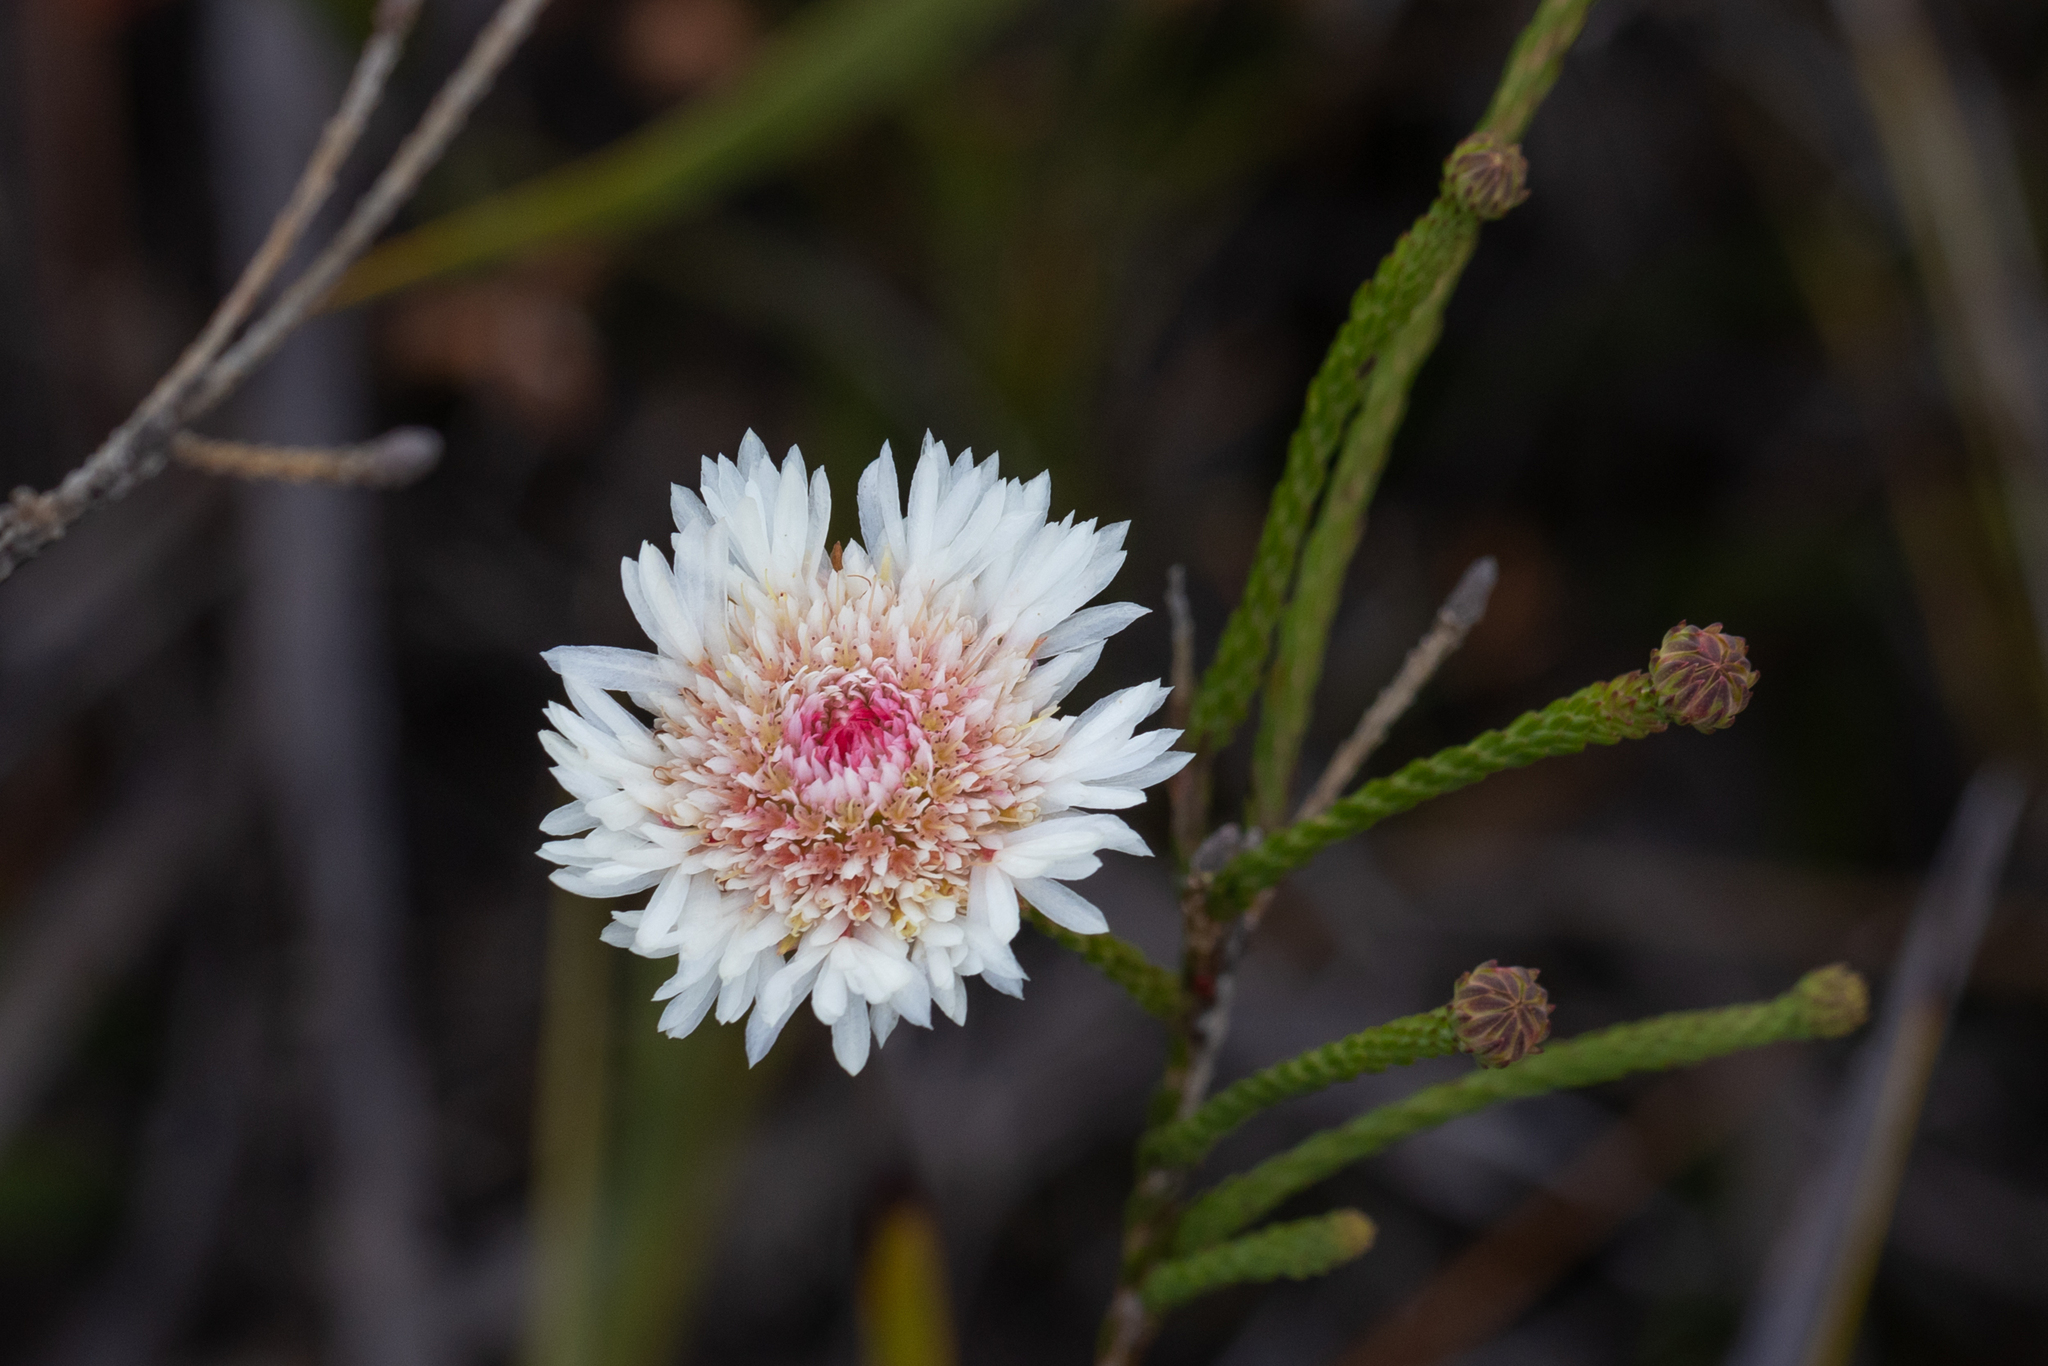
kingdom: Plantae
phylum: Tracheophyta
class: Magnoliopsida
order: Myrtales
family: Myrtaceae
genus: Actinodium
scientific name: Actinodium cunninghamii
